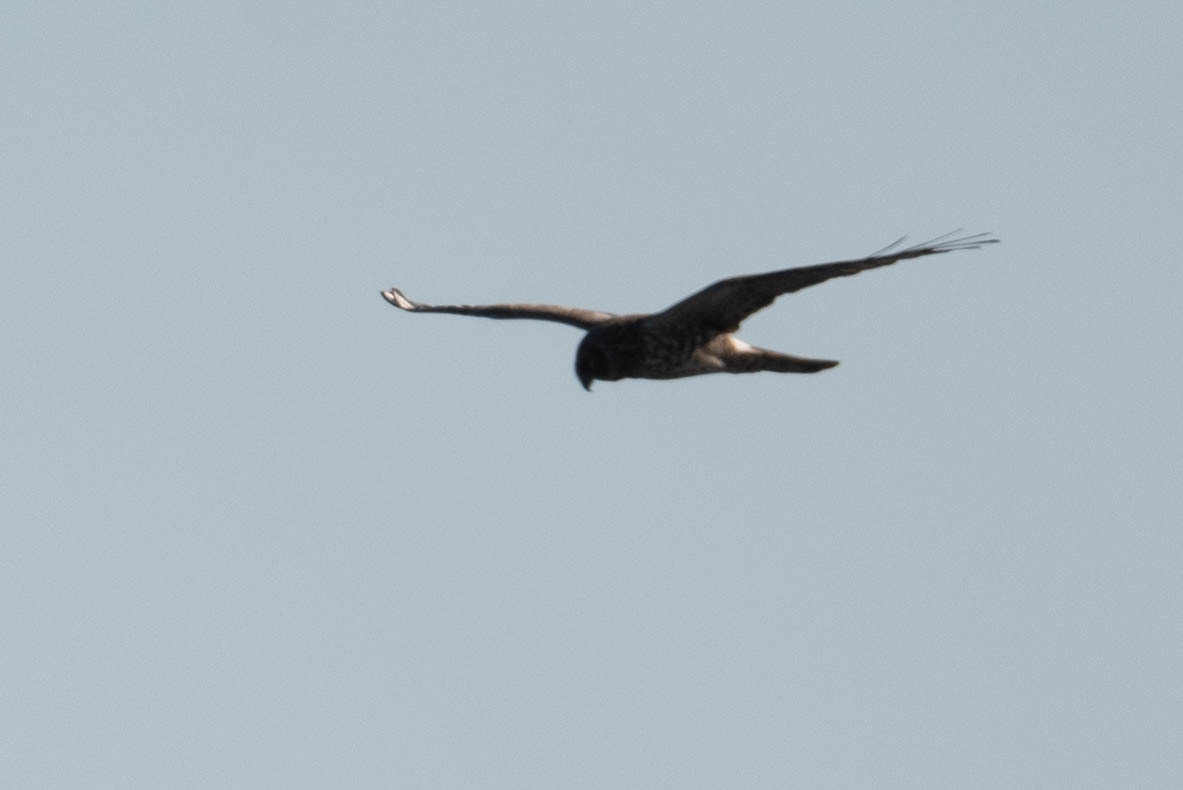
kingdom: Animalia
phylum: Chordata
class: Aves
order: Accipitriformes
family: Accipitridae
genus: Circus
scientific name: Circus cyaneus
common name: Hen harrier
